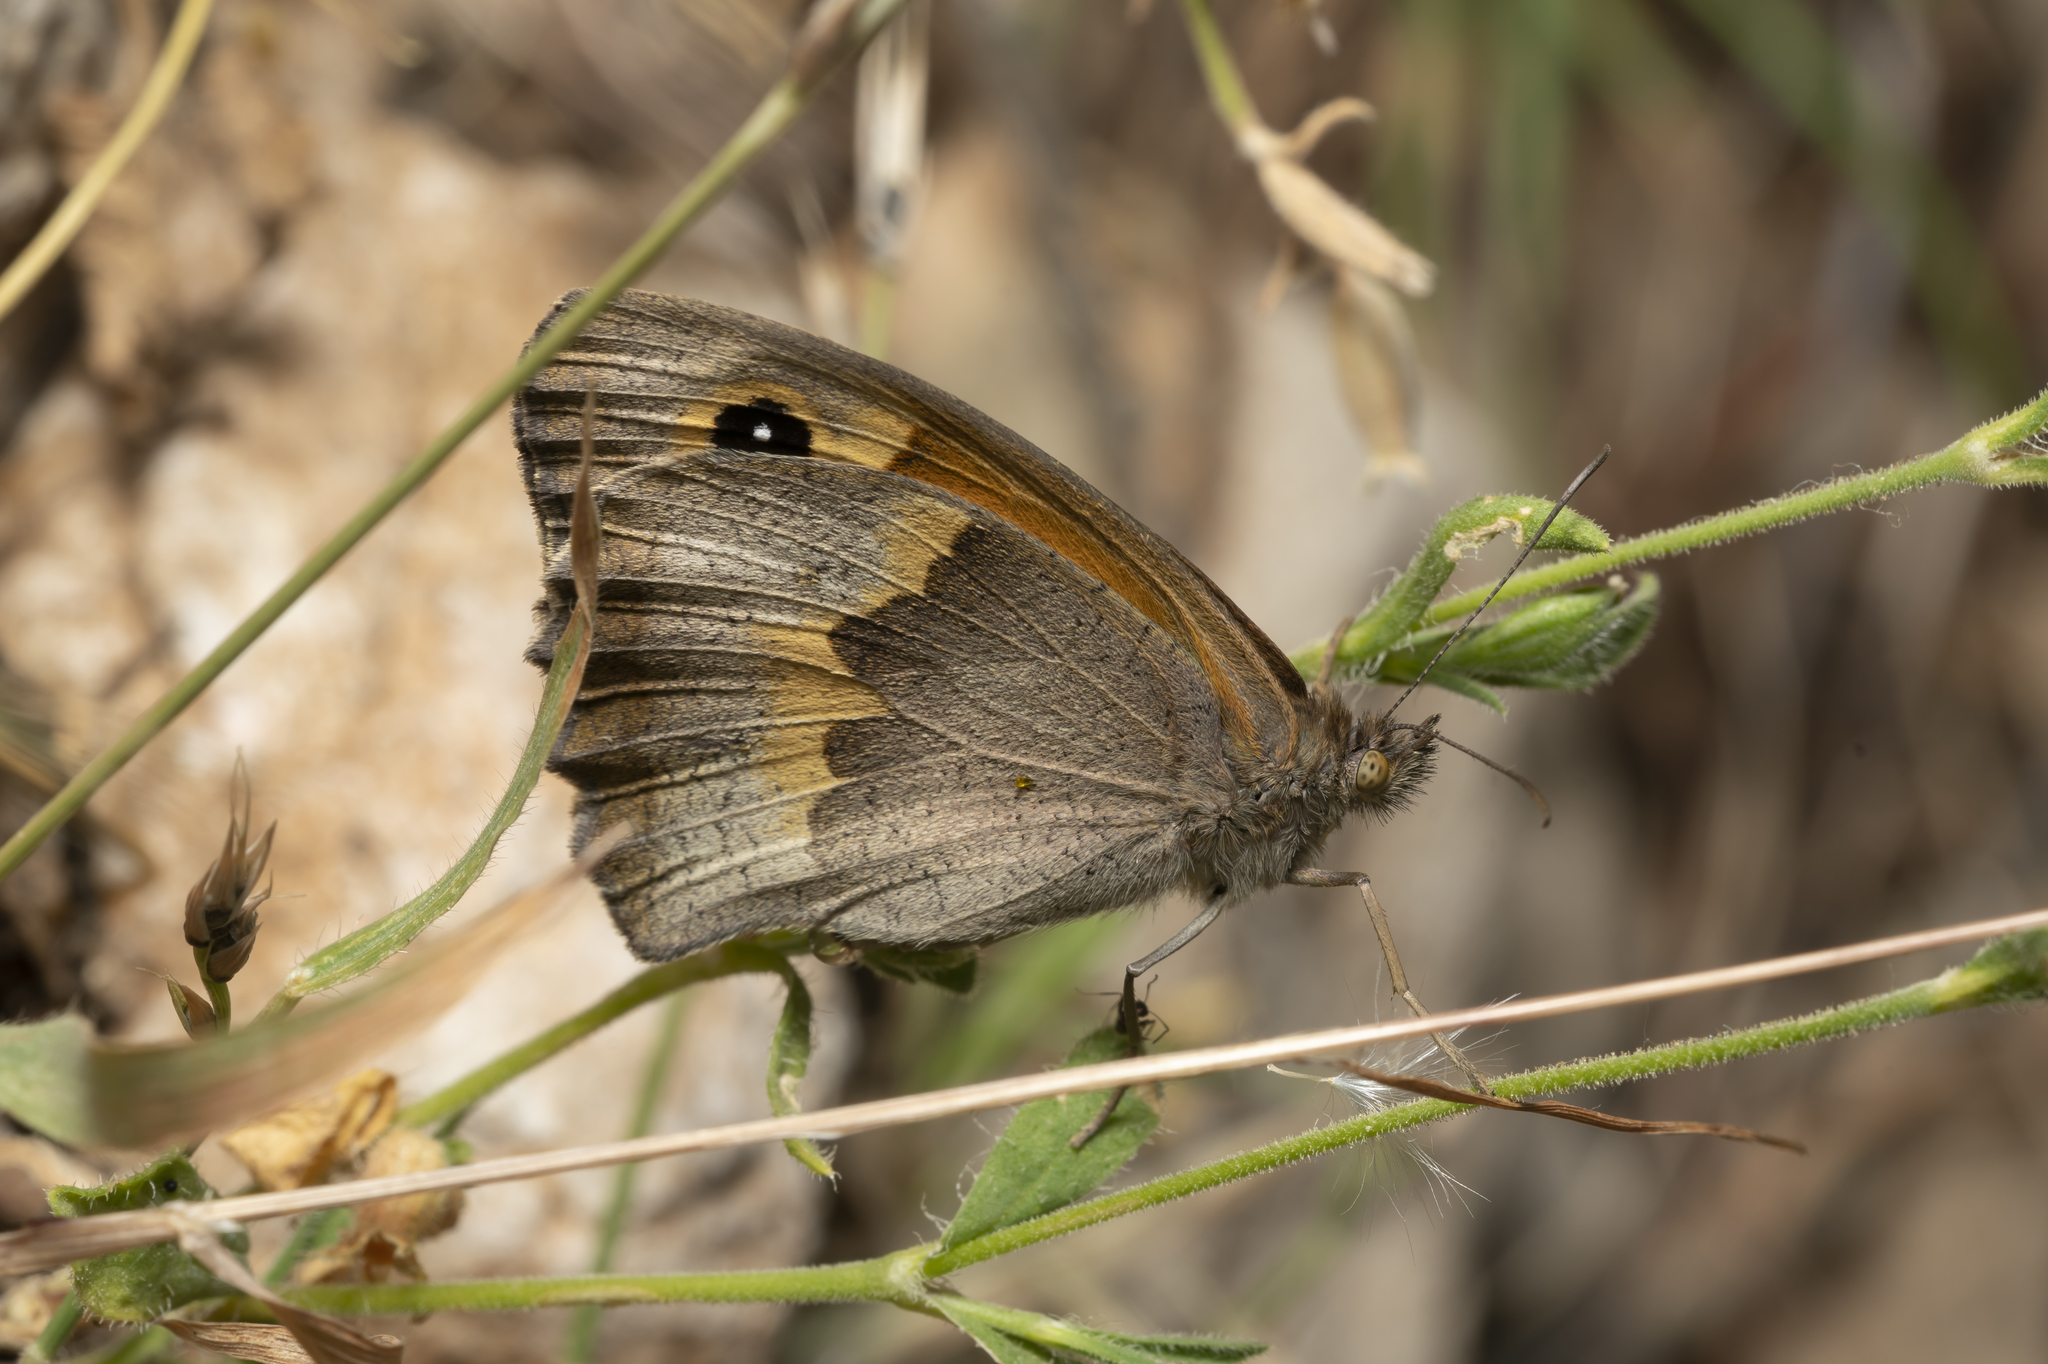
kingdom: Animalia
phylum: Arthropoda
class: Insecta
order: Lepidoptera
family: Nymphalidae
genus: Maniola
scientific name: Maniola telmessia
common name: Persian meadow brown
